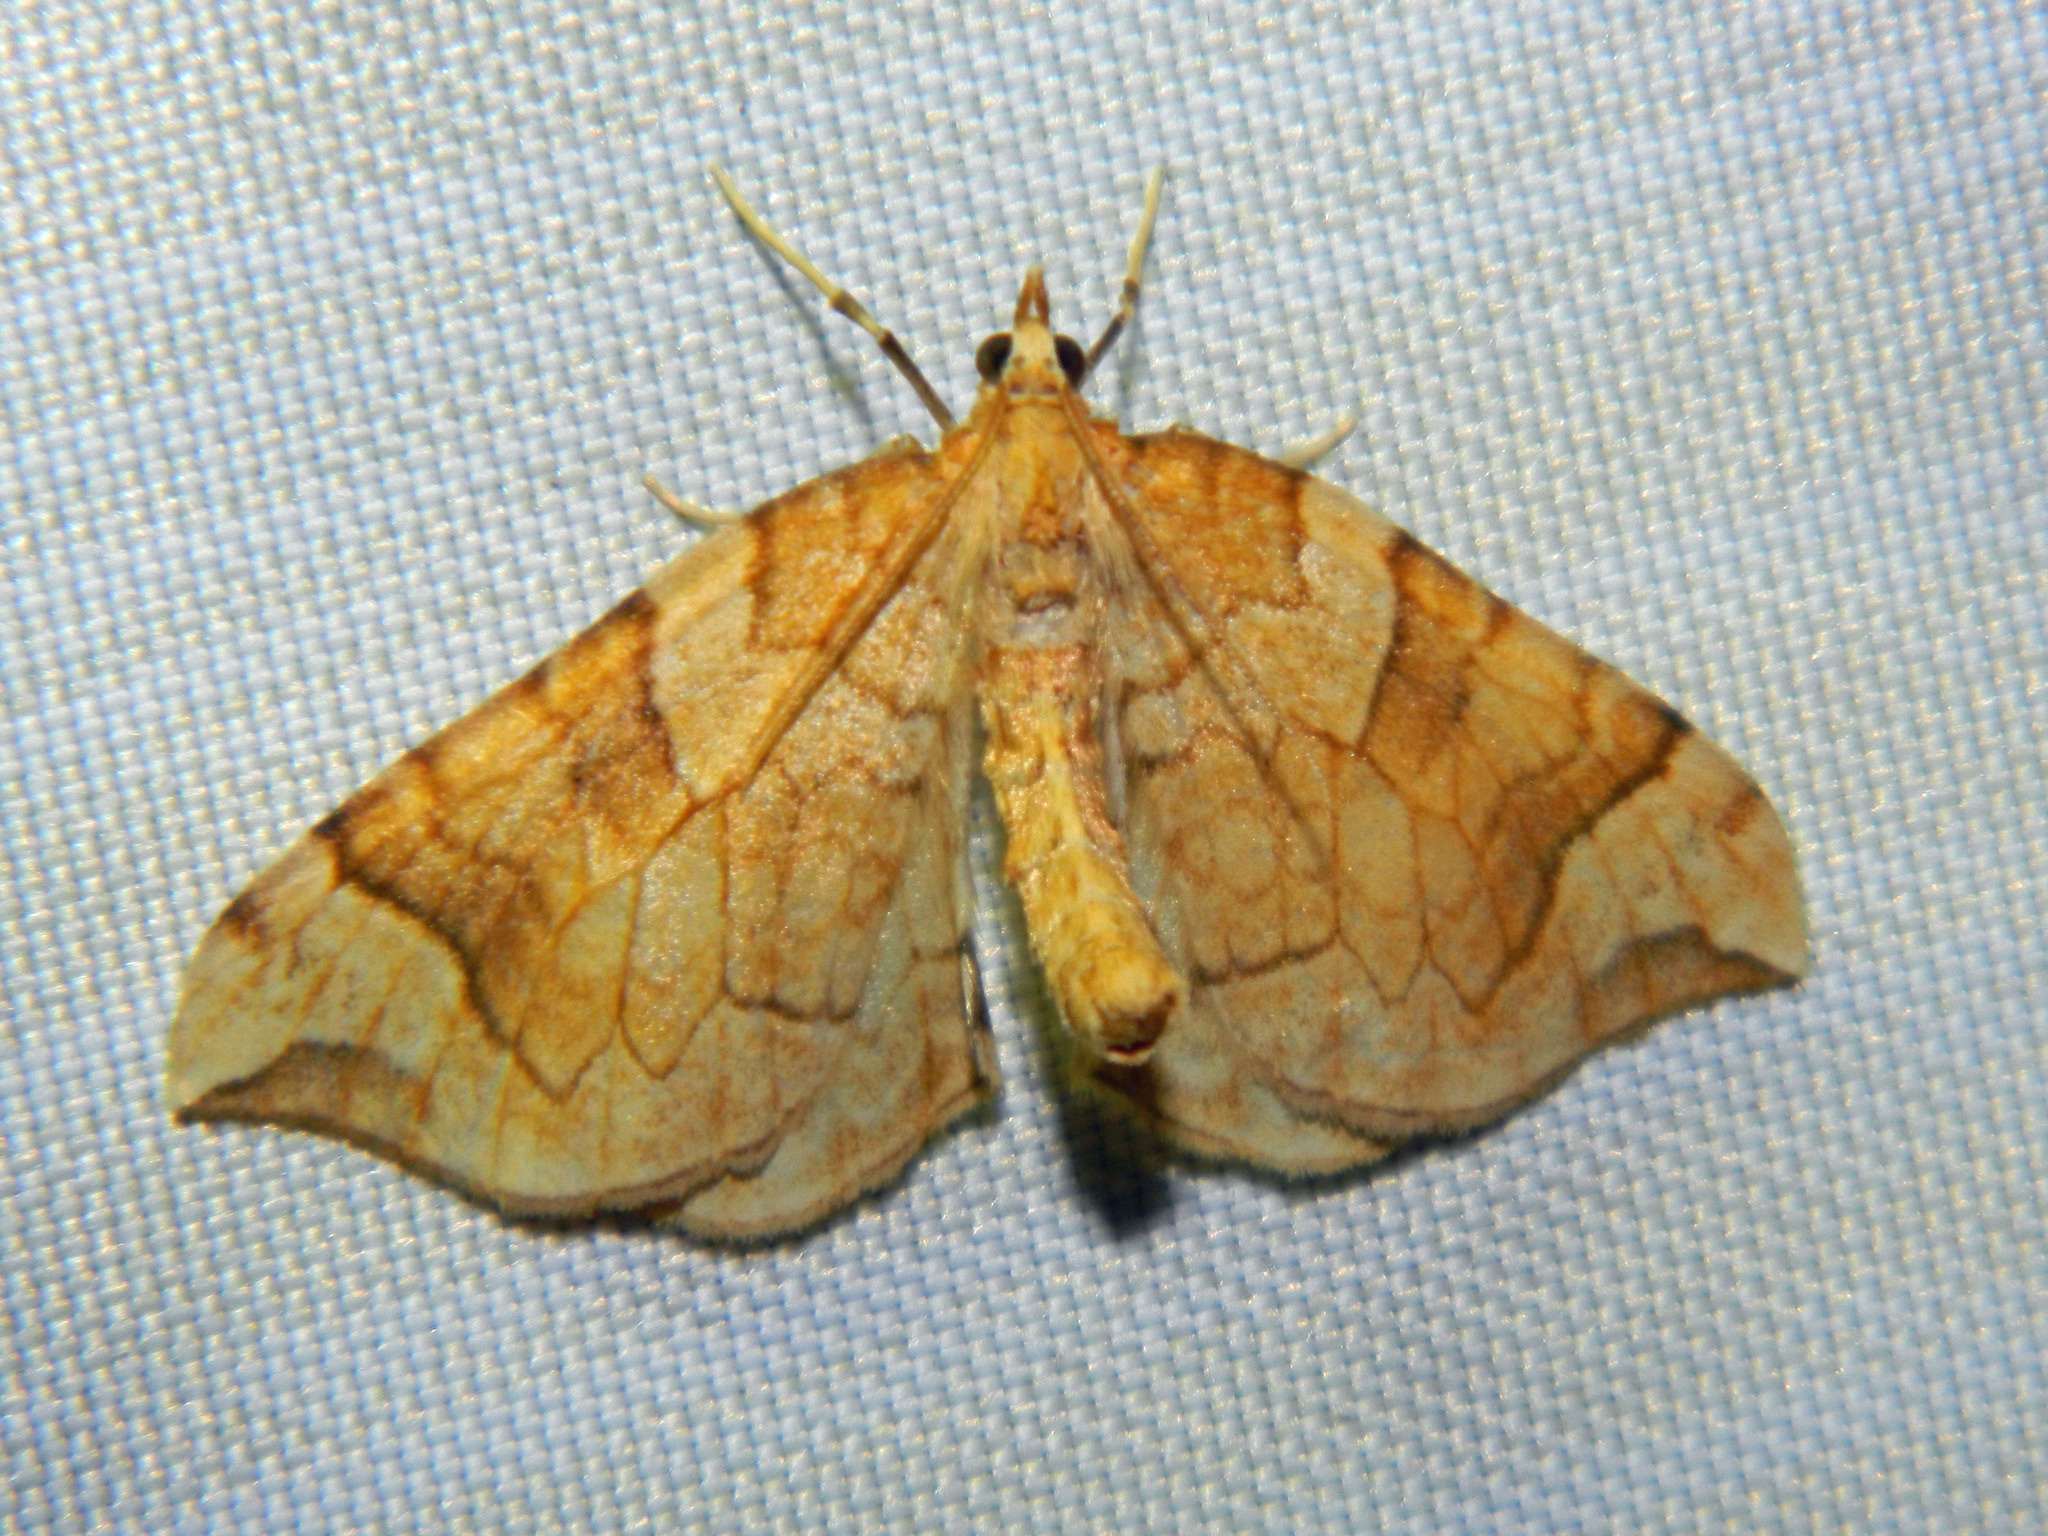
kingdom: Animalia
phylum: Arthropoda
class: Insecta
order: Lepidoptera
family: Geometridae
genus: Eulithis
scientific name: Eulithis propulsata
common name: Currant eulithis moth
